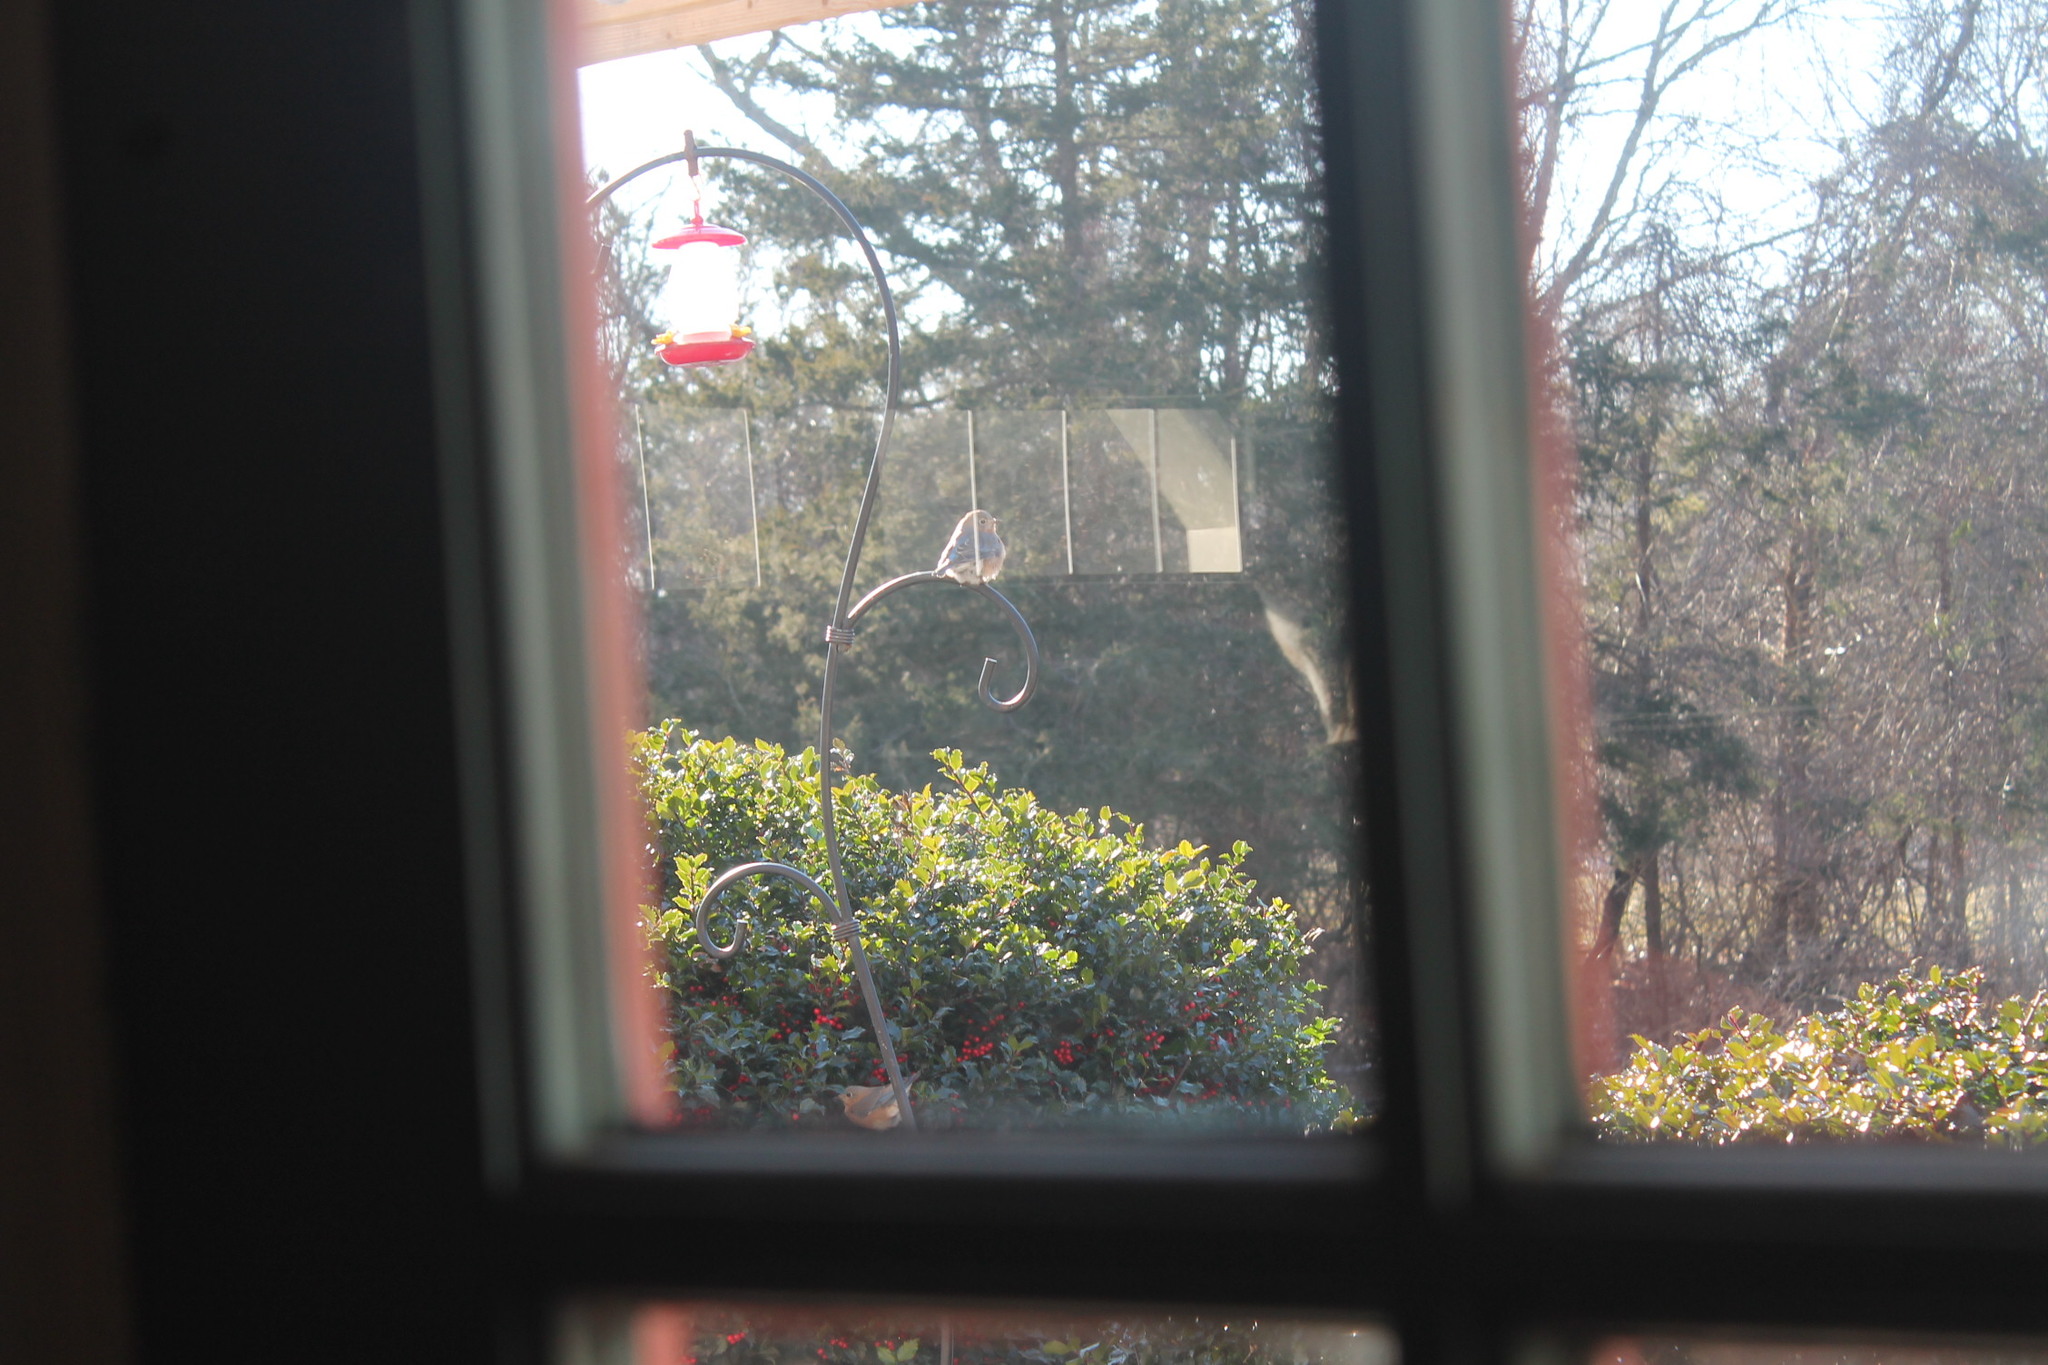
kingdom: Animalia
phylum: Chordata
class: Aves
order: Passeriformes
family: Turdidae
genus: Sialia
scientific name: Sialia sialis
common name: Eastern bluebird
